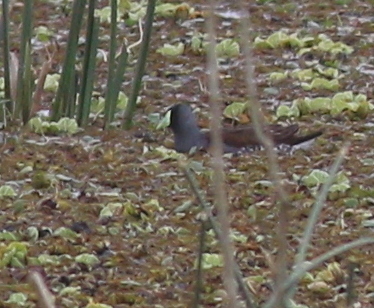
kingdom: Animalia
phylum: Chordata
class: Aves
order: Gruiformes
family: Rallidae
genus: Gallinula
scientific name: Gallinula melanops
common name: Spot-flanked gallinule
